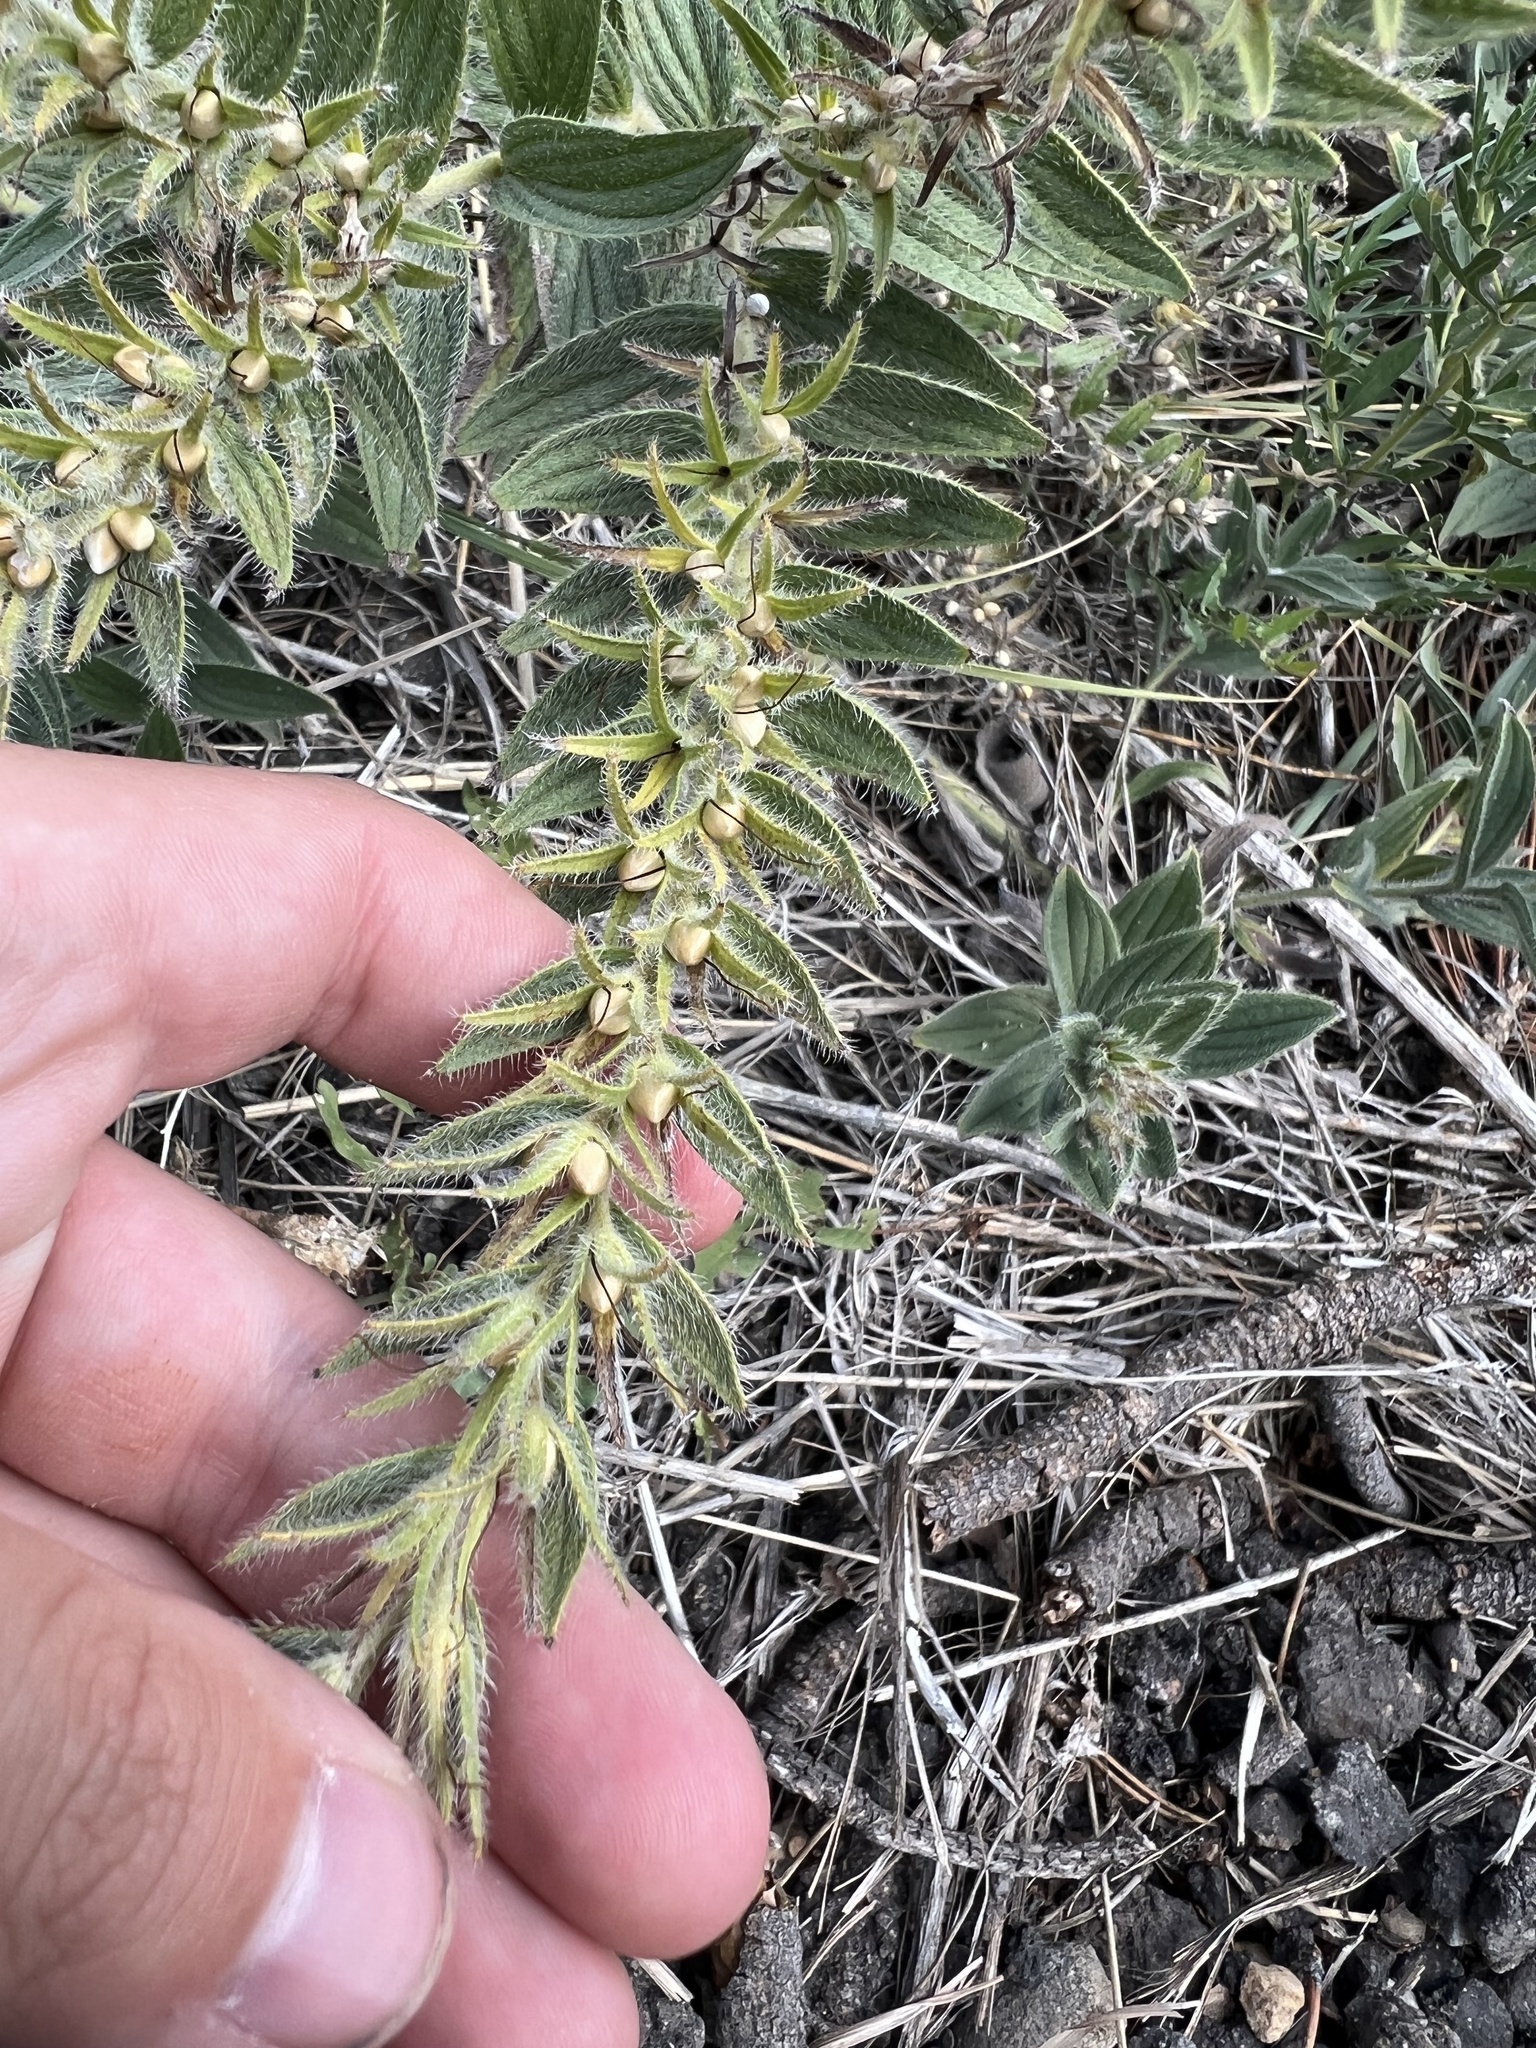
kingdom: Plantae
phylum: Tracheophyta
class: Magnoliopsida
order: Boraginales
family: Boraginaceae
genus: Lithospermum
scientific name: Lithospermum occidentale
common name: Western false gromwell
